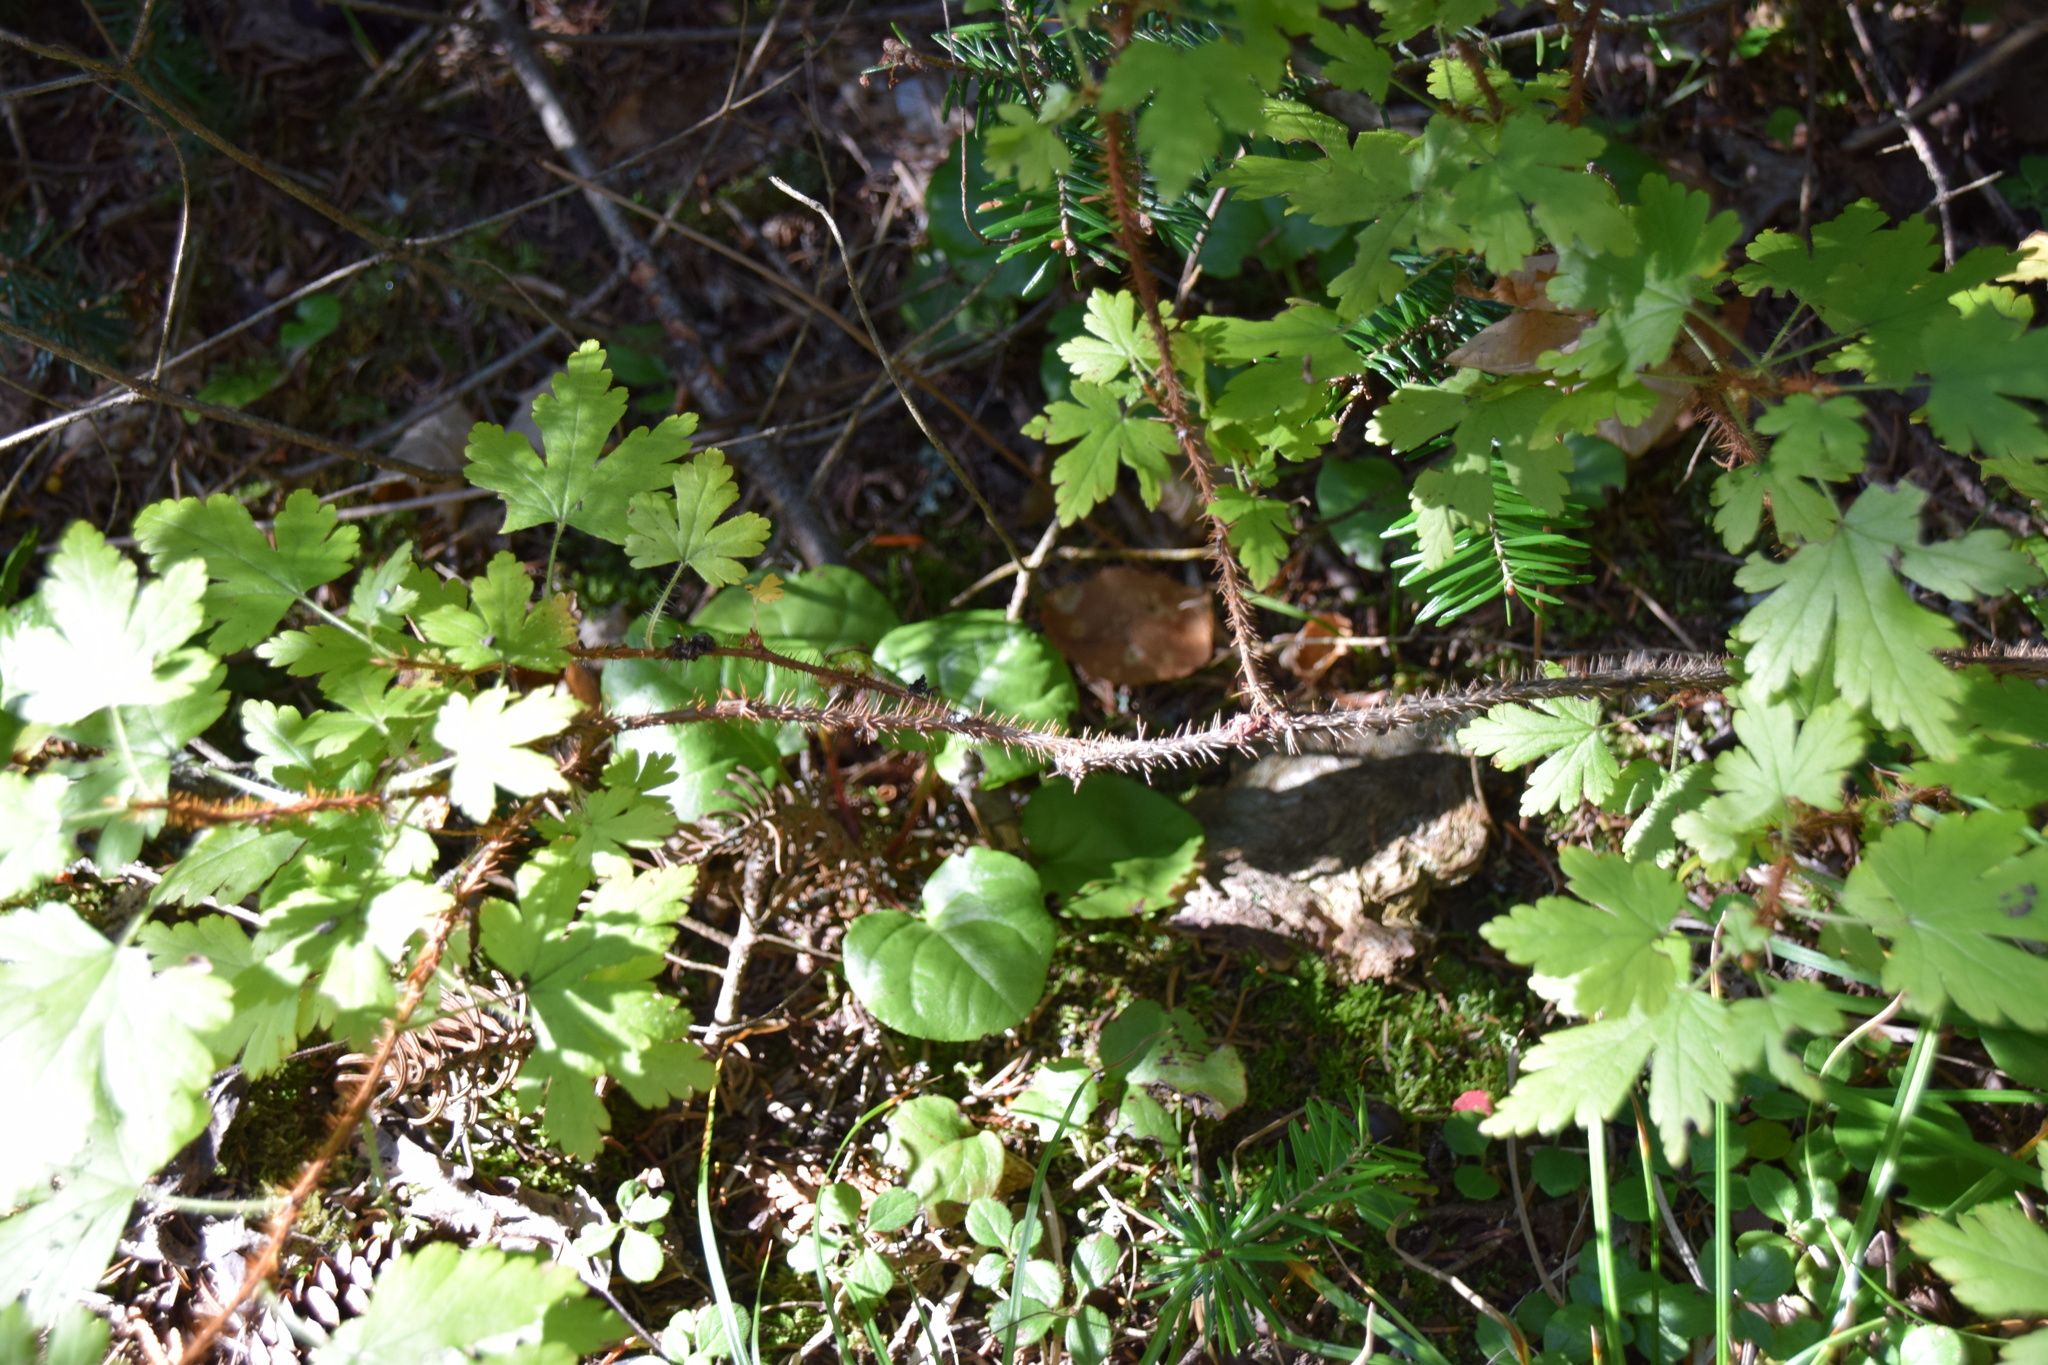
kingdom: Plantae
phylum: Tracheophyta
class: Magnoliopsida
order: Saxifragales
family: Grossulariaceae
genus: Ribes
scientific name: Ribes lacustre
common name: Black gooseberry
